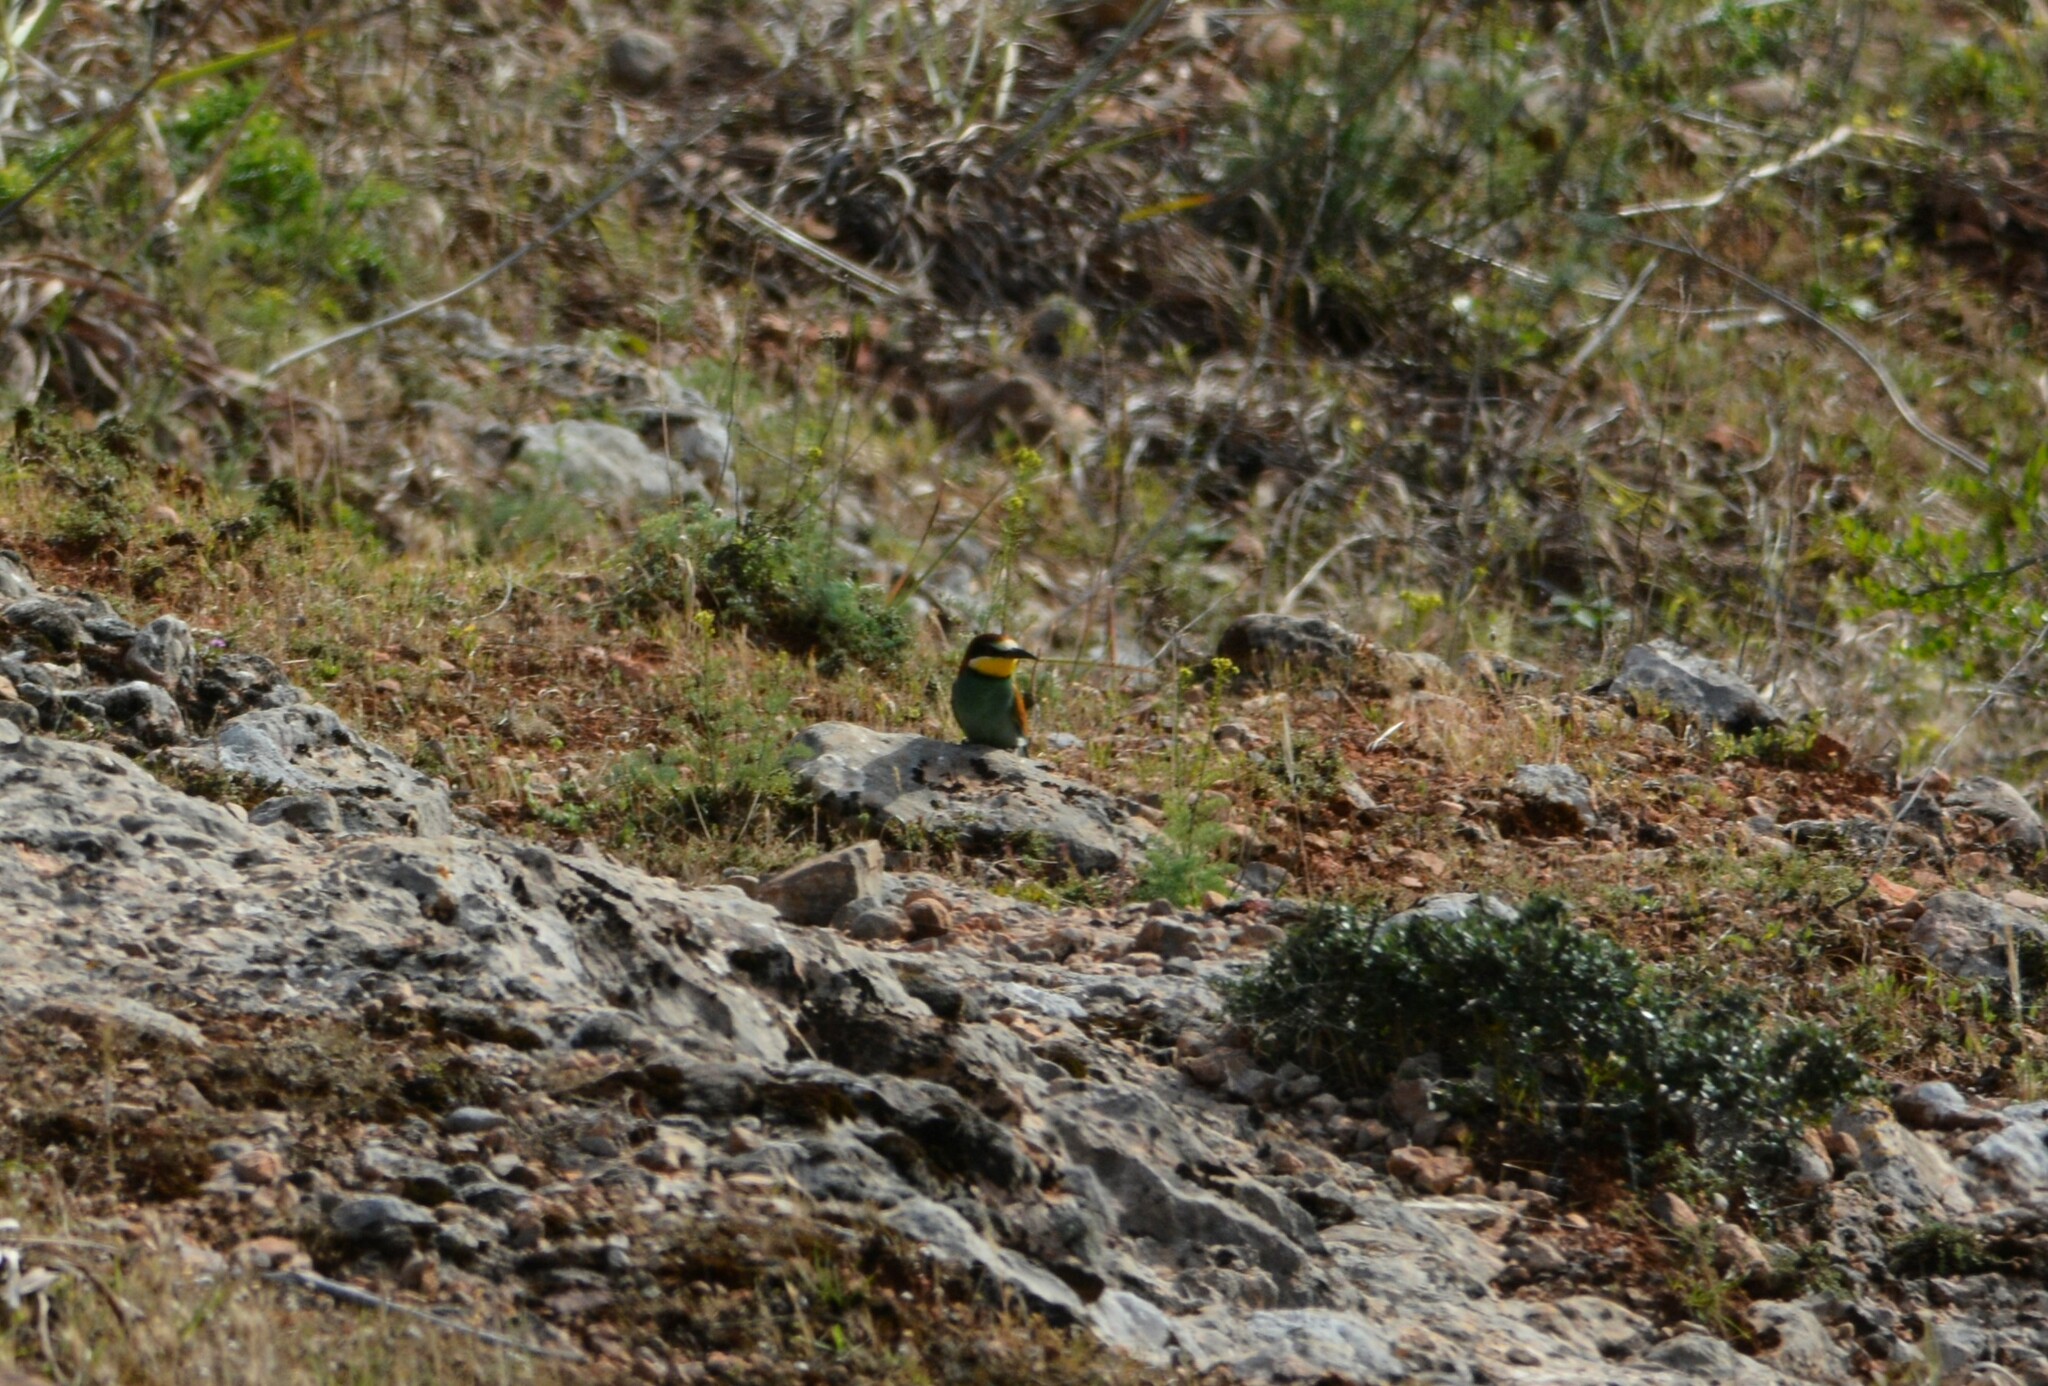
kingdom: Animalia
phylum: Chordata
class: Aves
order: Coraciiformes
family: Meropidae
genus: Merops
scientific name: Merops apiaster
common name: European bee-eater
